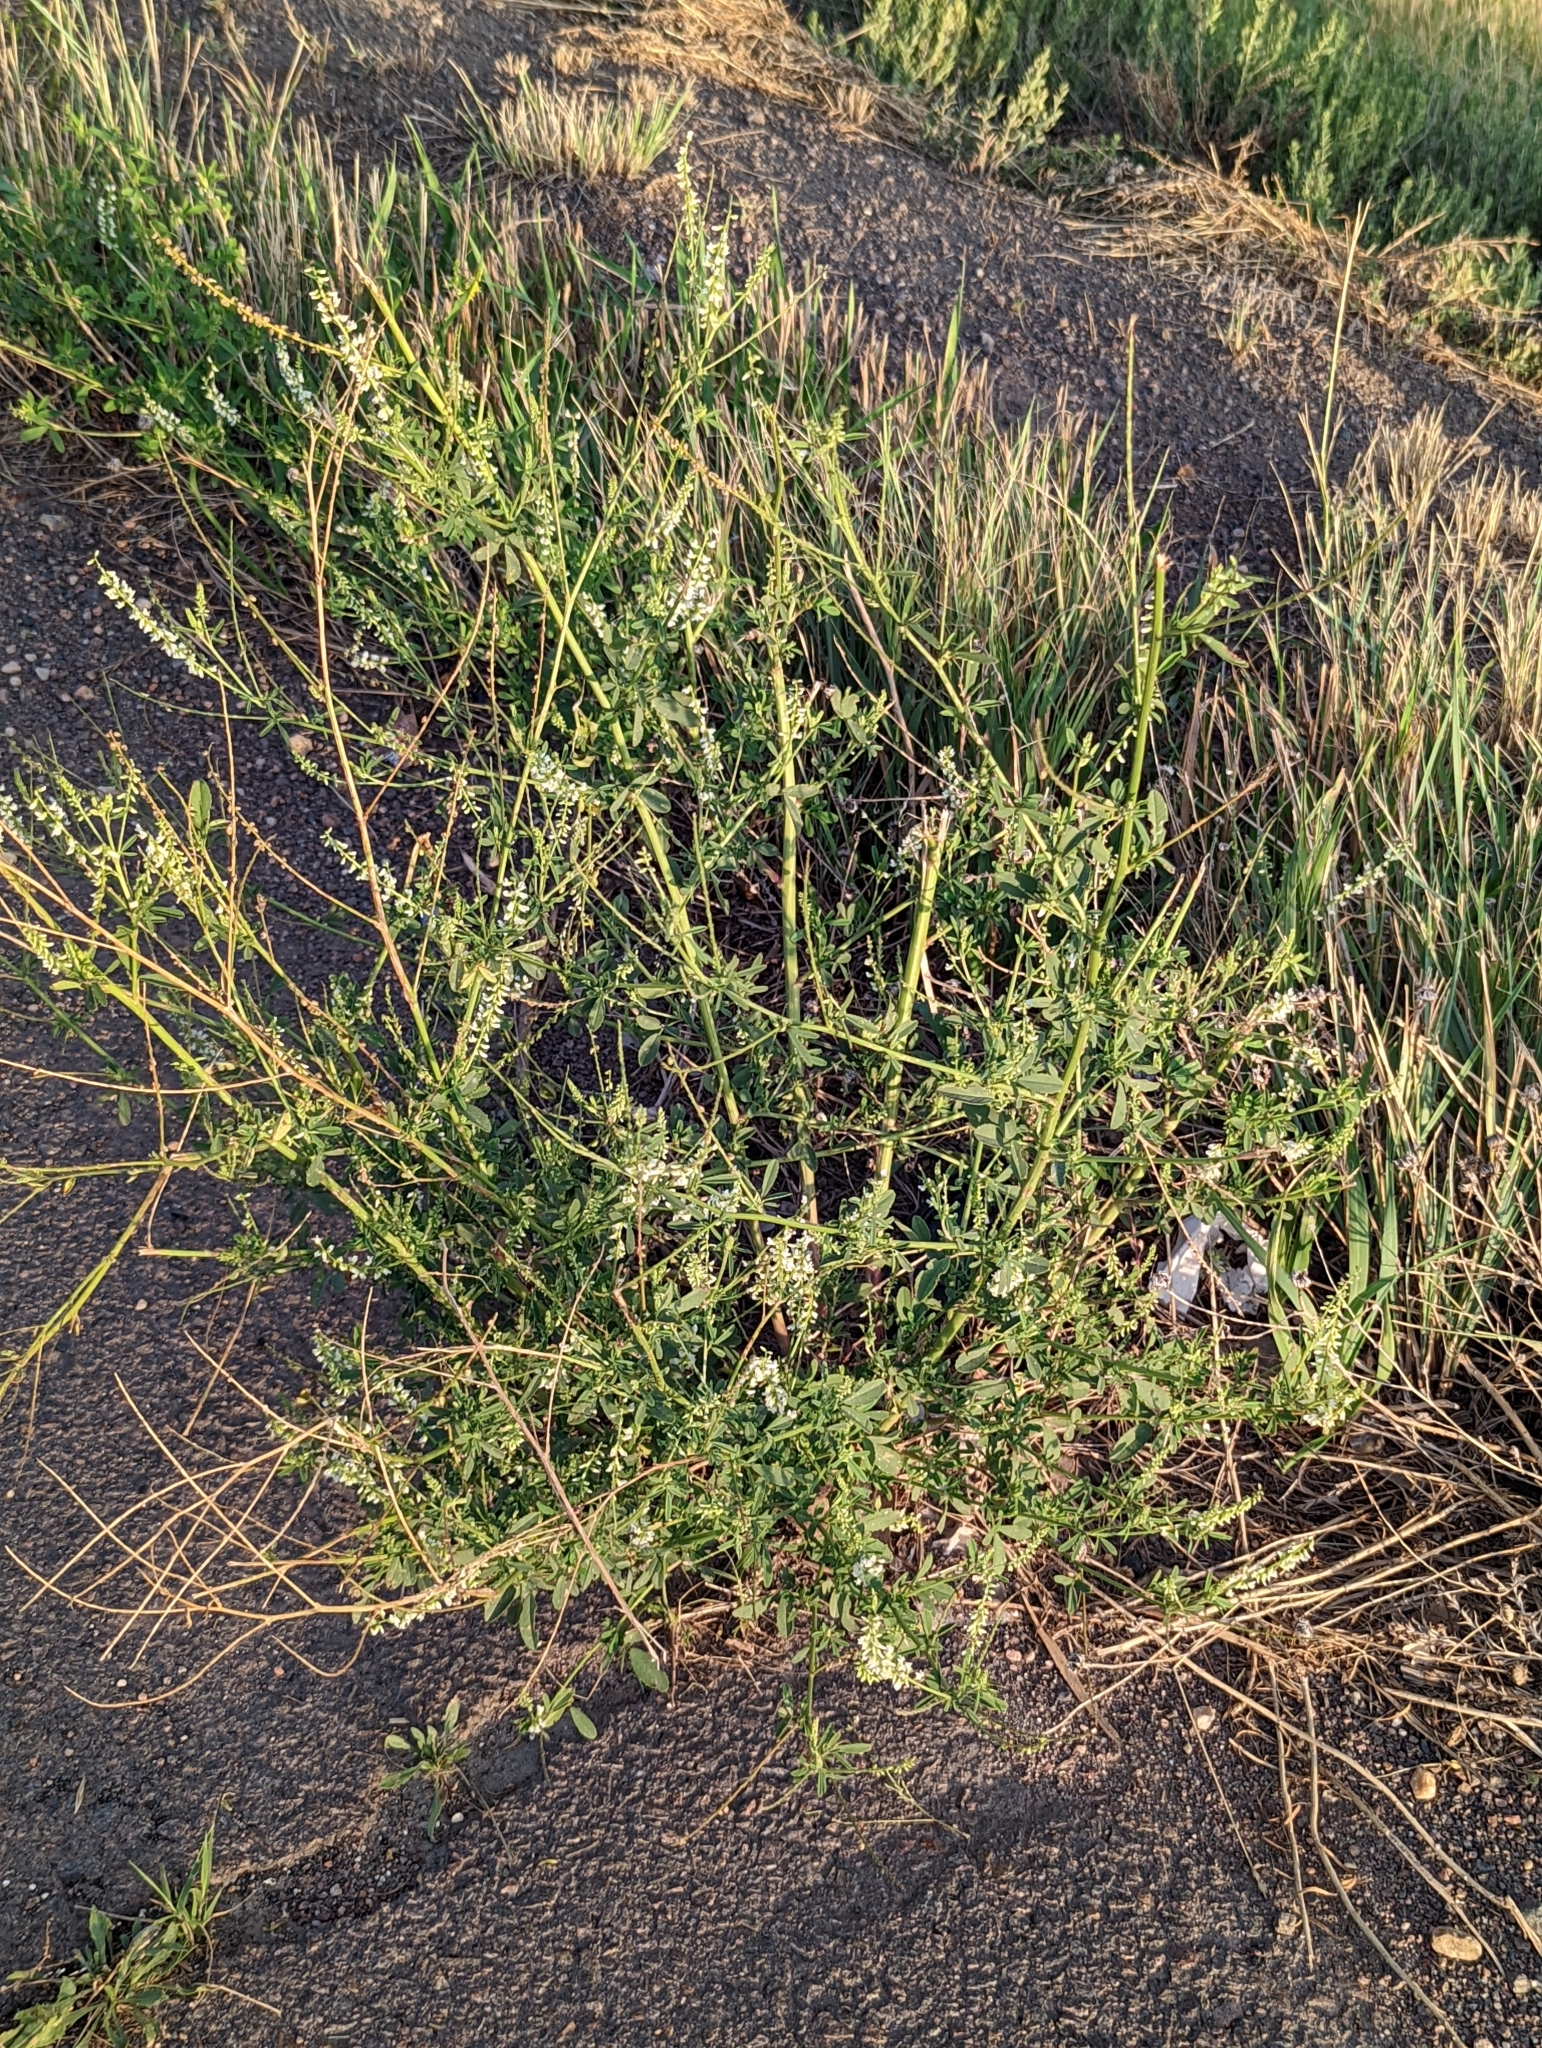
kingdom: Plantae
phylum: Tracheophyta
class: Magnoliopsida
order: Fabales
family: Fabaceae
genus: Melilotus
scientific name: Melilotus albus
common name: White melilot
